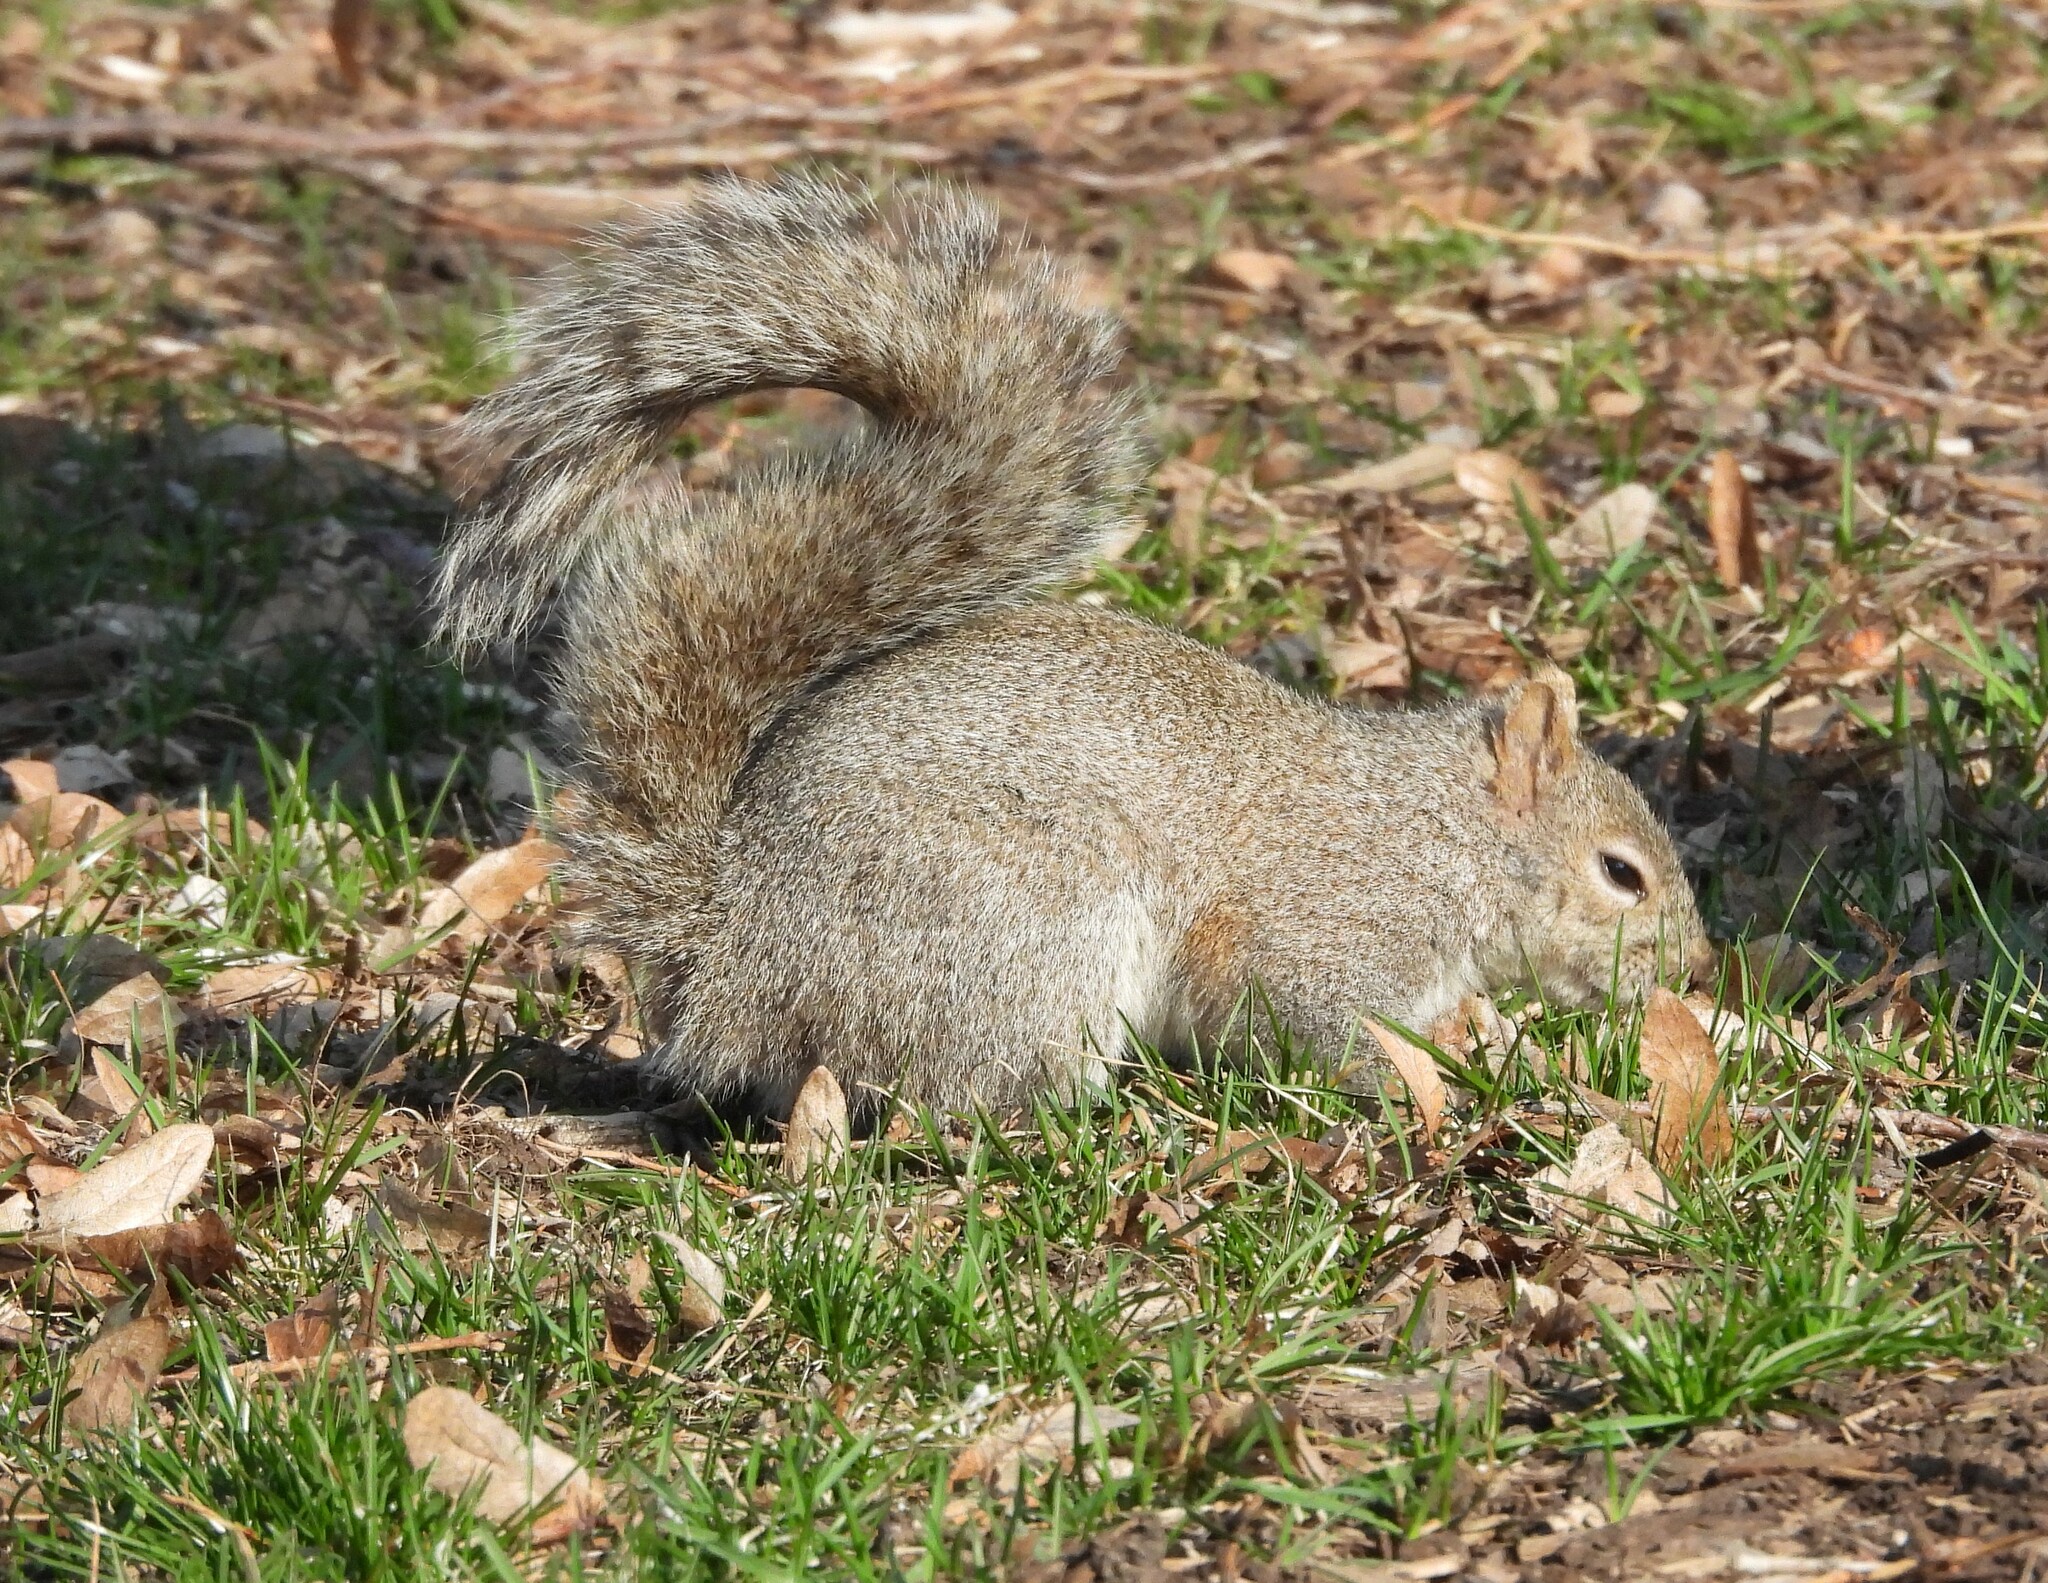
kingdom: Animalia
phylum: Chordata
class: Mammalia
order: Rodentia
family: Sciuridae
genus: Sciurus
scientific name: Sciurus carolinensis
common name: Eastern gray squirrel
